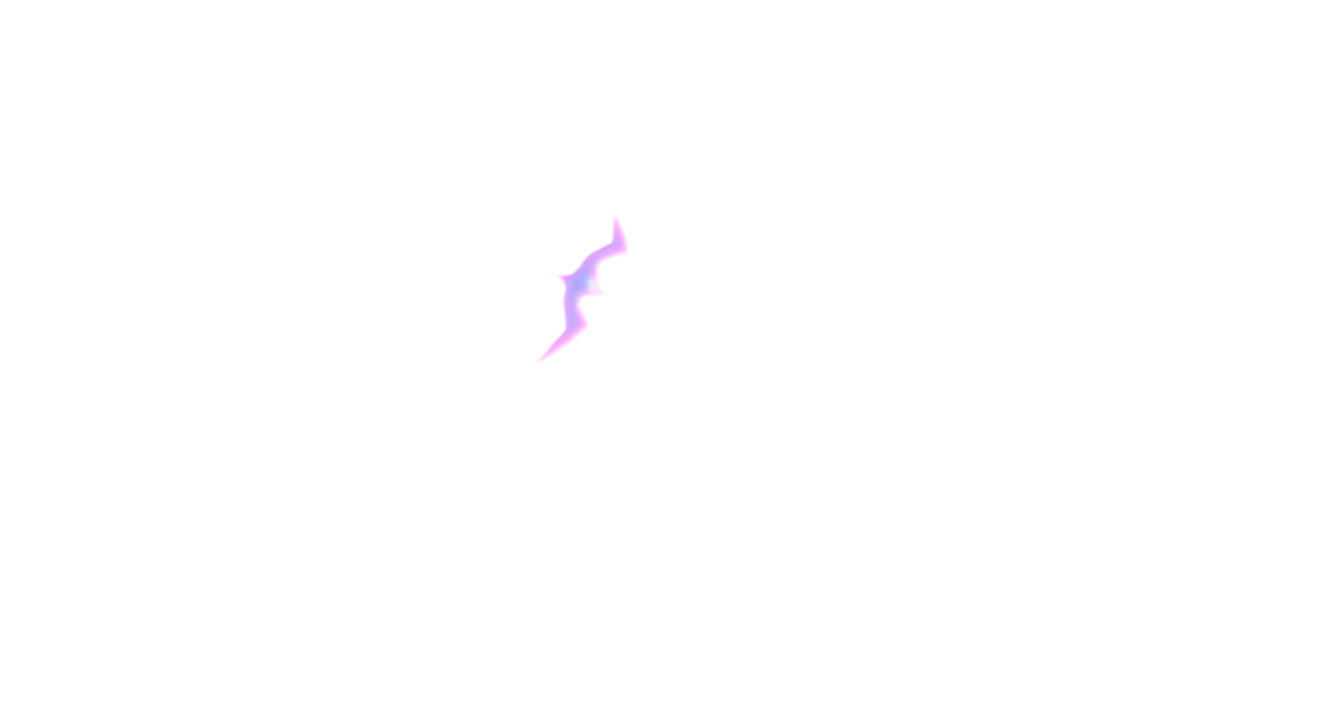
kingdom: Animalia
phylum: Chordata
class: Aves
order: Suliformes
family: Fregatidae
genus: Fregata
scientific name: Fregata minor
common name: Great frigatebird
